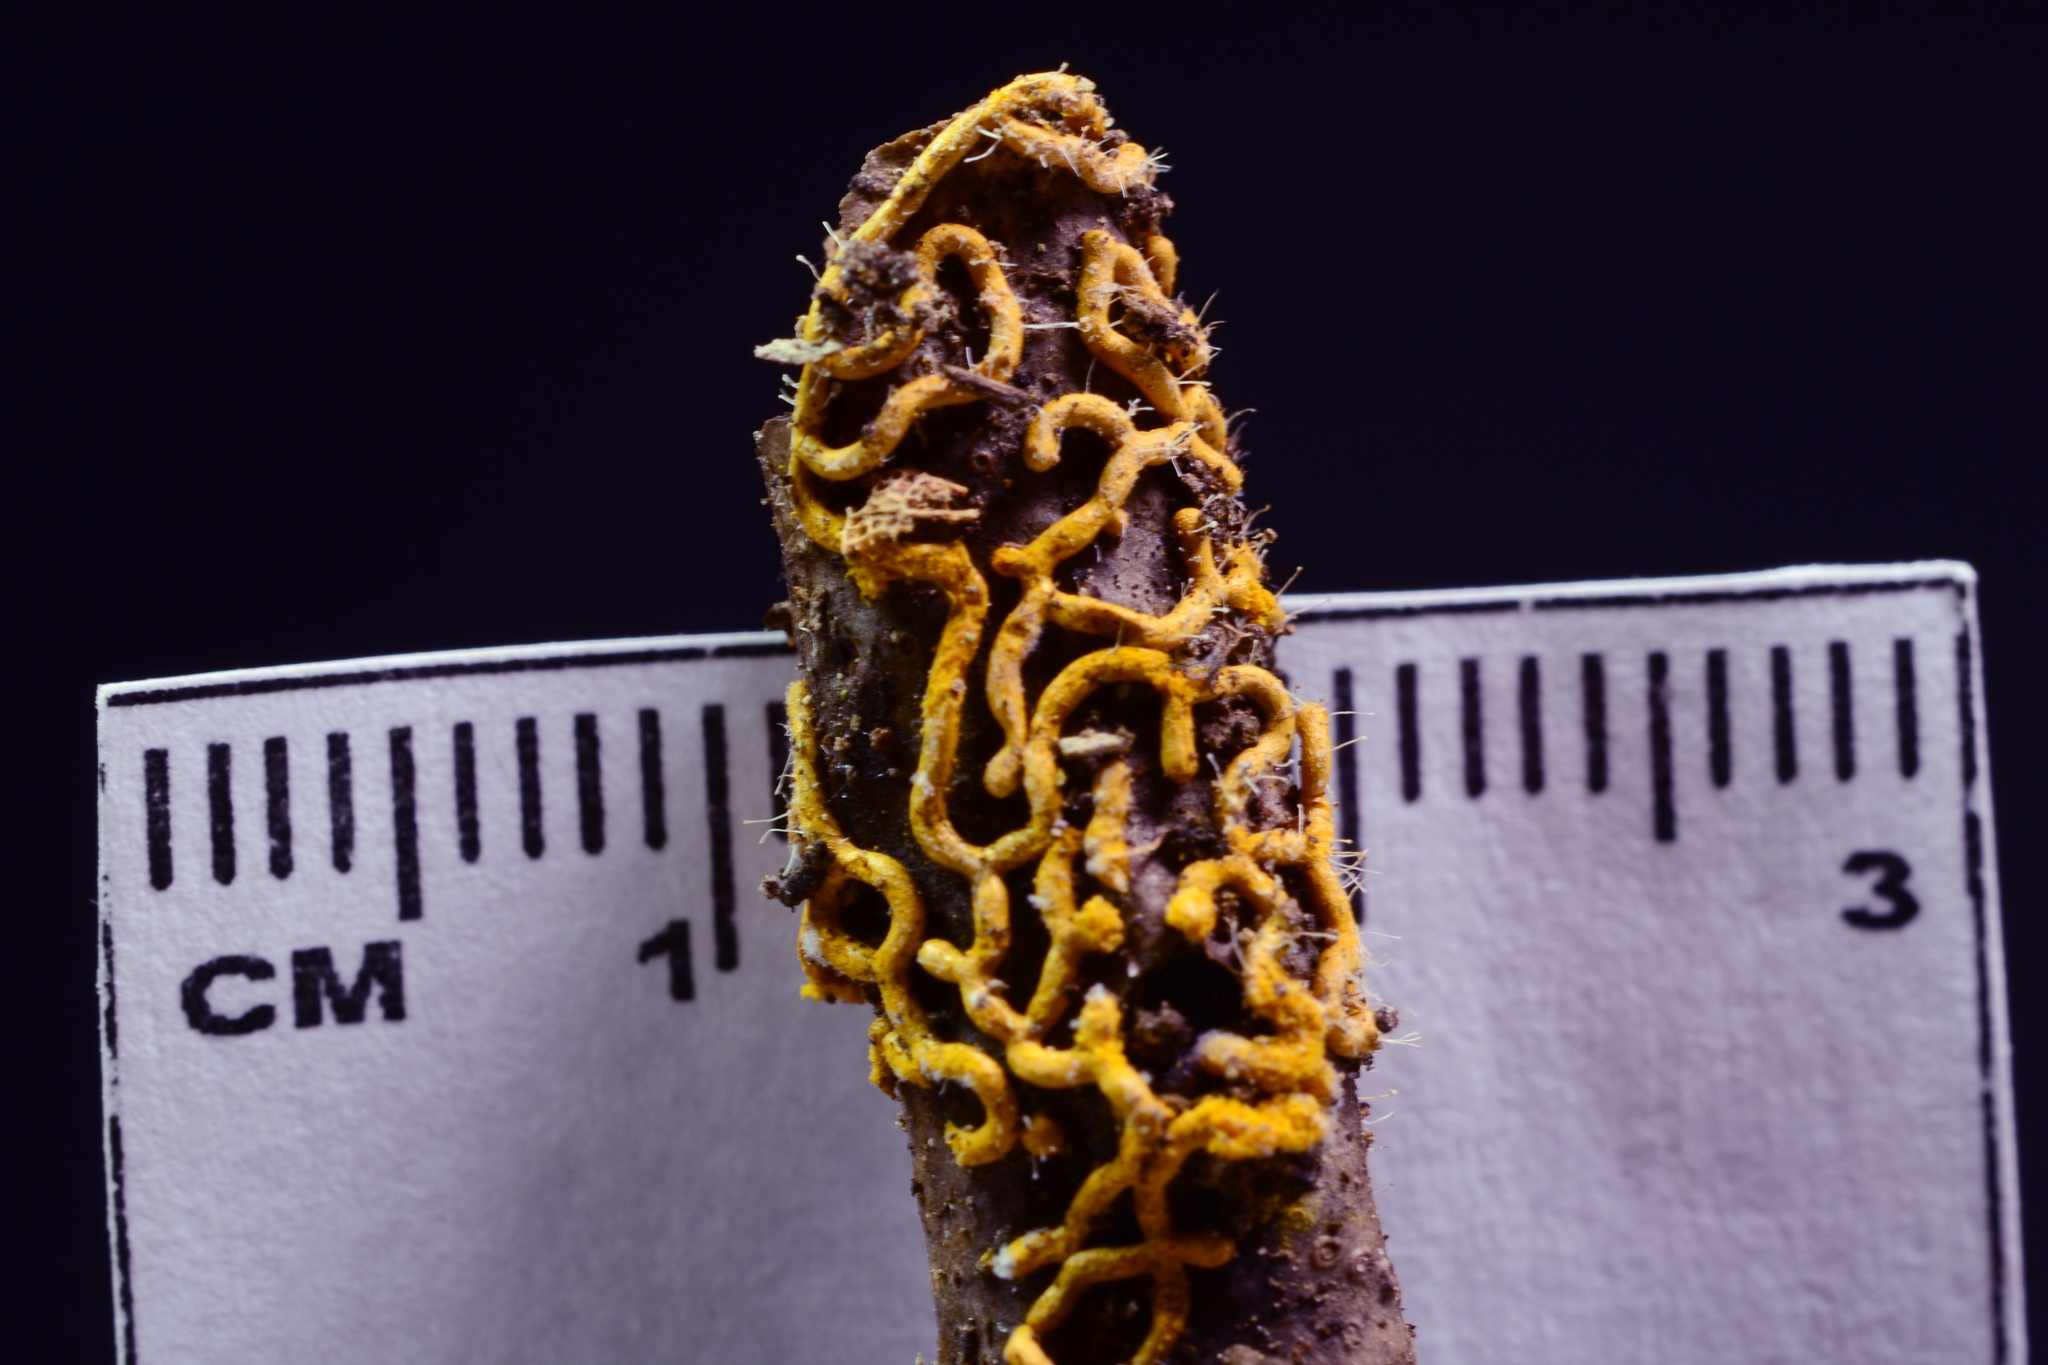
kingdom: Fungi
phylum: Ascomycota
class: Sordariomycetes
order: Hypocreales
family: Ophiocordycipitaceae
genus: Polycephalomyces
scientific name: Polycephalomyces tomentosus
